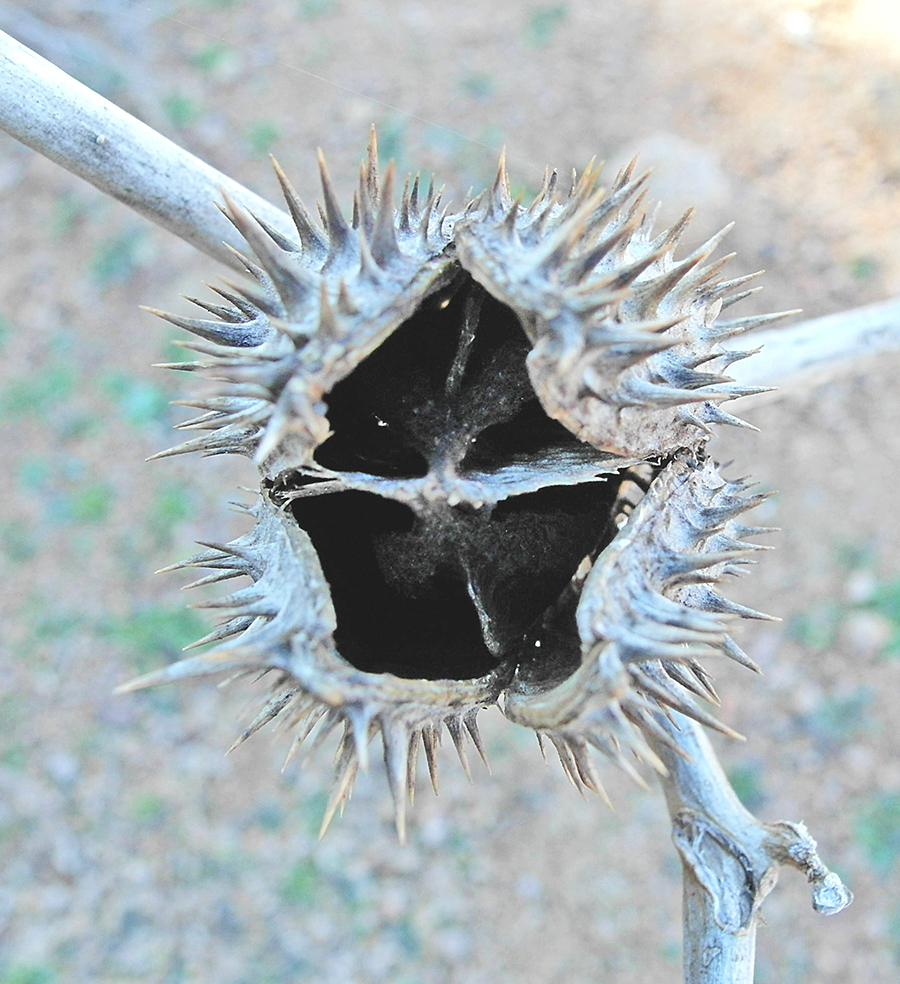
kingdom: Plantae
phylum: Tracheophyta
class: Magnoliopsida
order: Solanales
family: Solanaceae
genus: Datura
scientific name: Datura stramonium
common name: Thorn-apple
